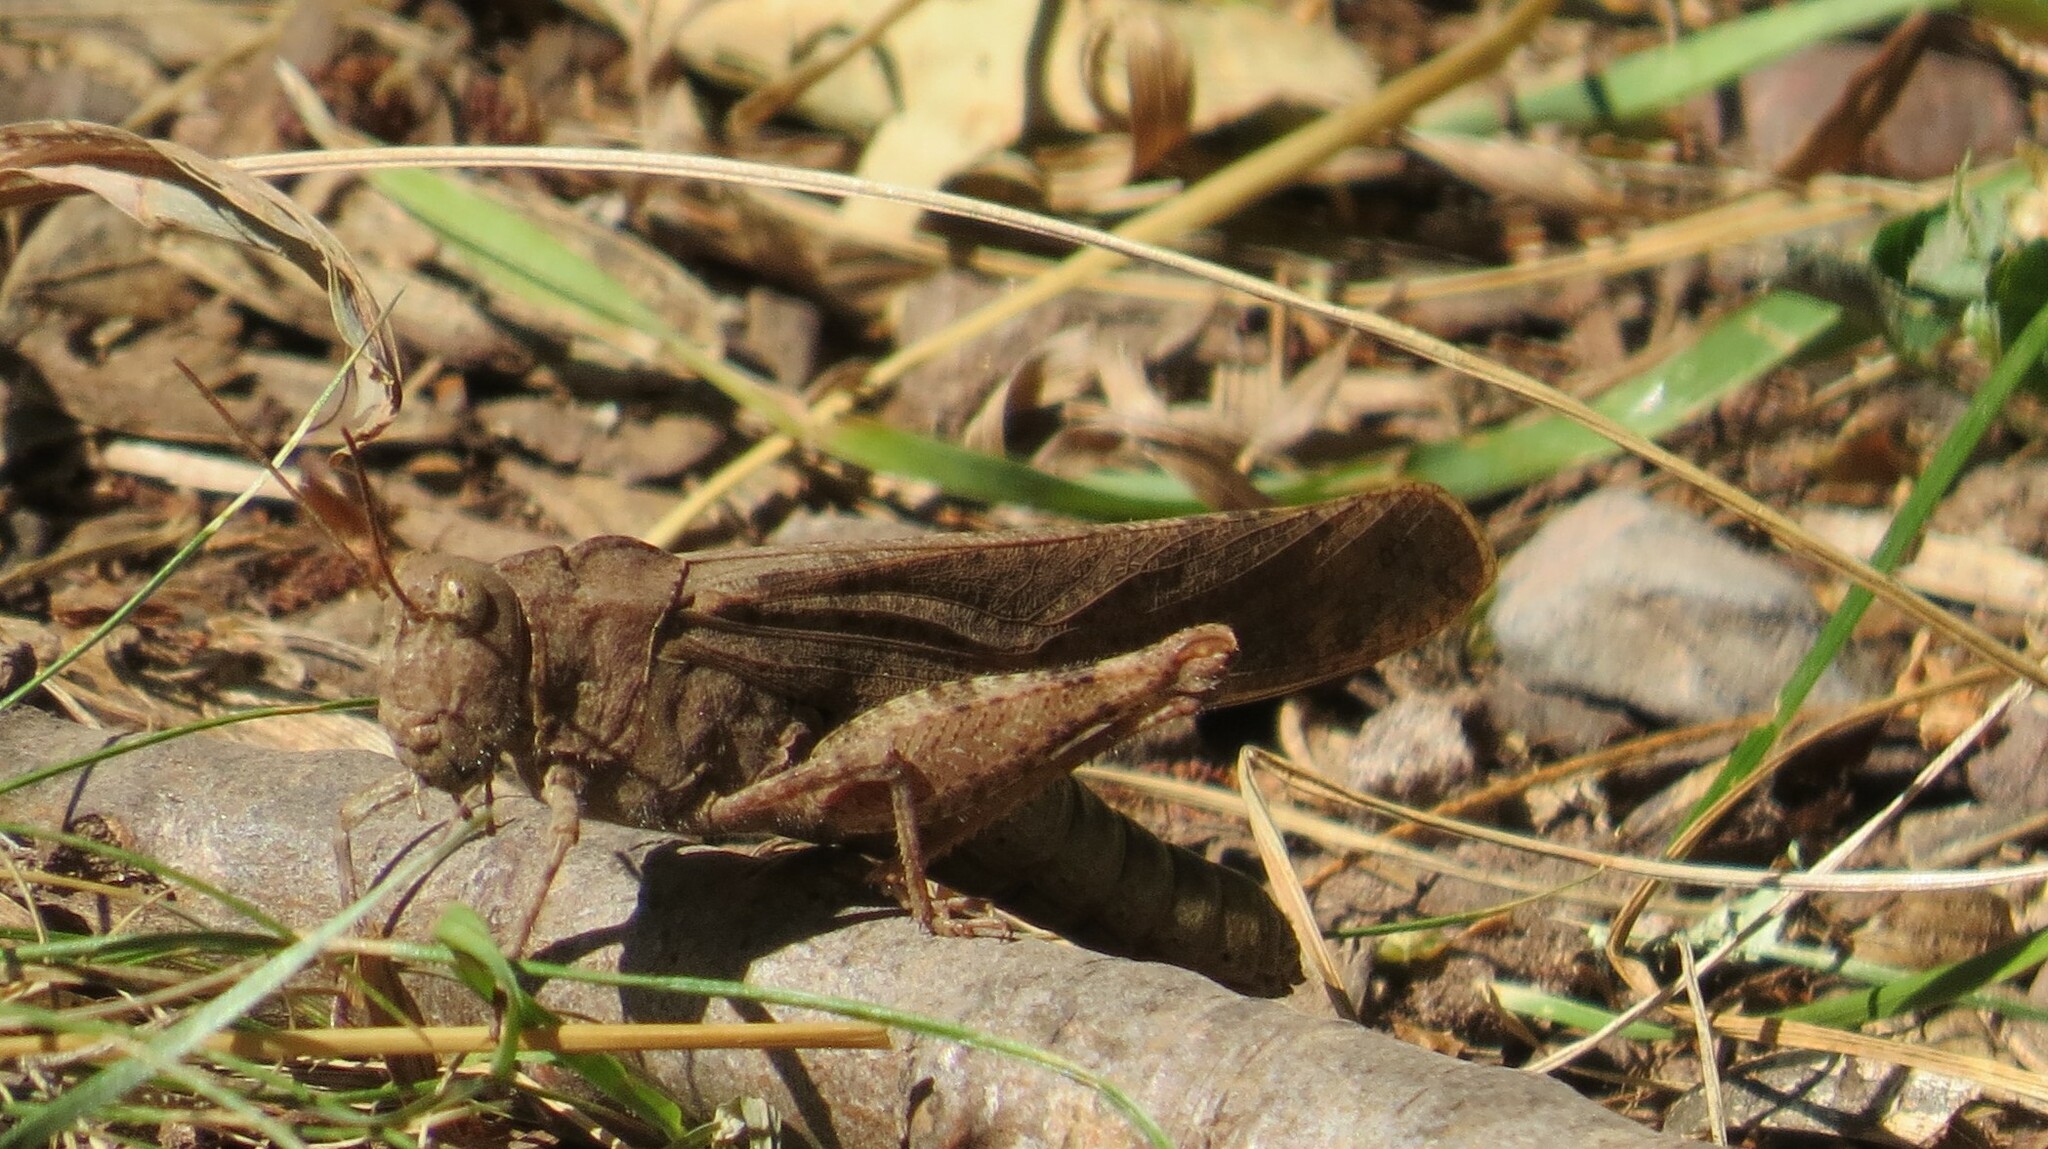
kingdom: Animalia
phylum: Arthropoda
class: Insecta
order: Orthoptera
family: Acrididae
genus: Dissosteira
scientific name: Dissosteira carolina
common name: Carolina grasshopper
